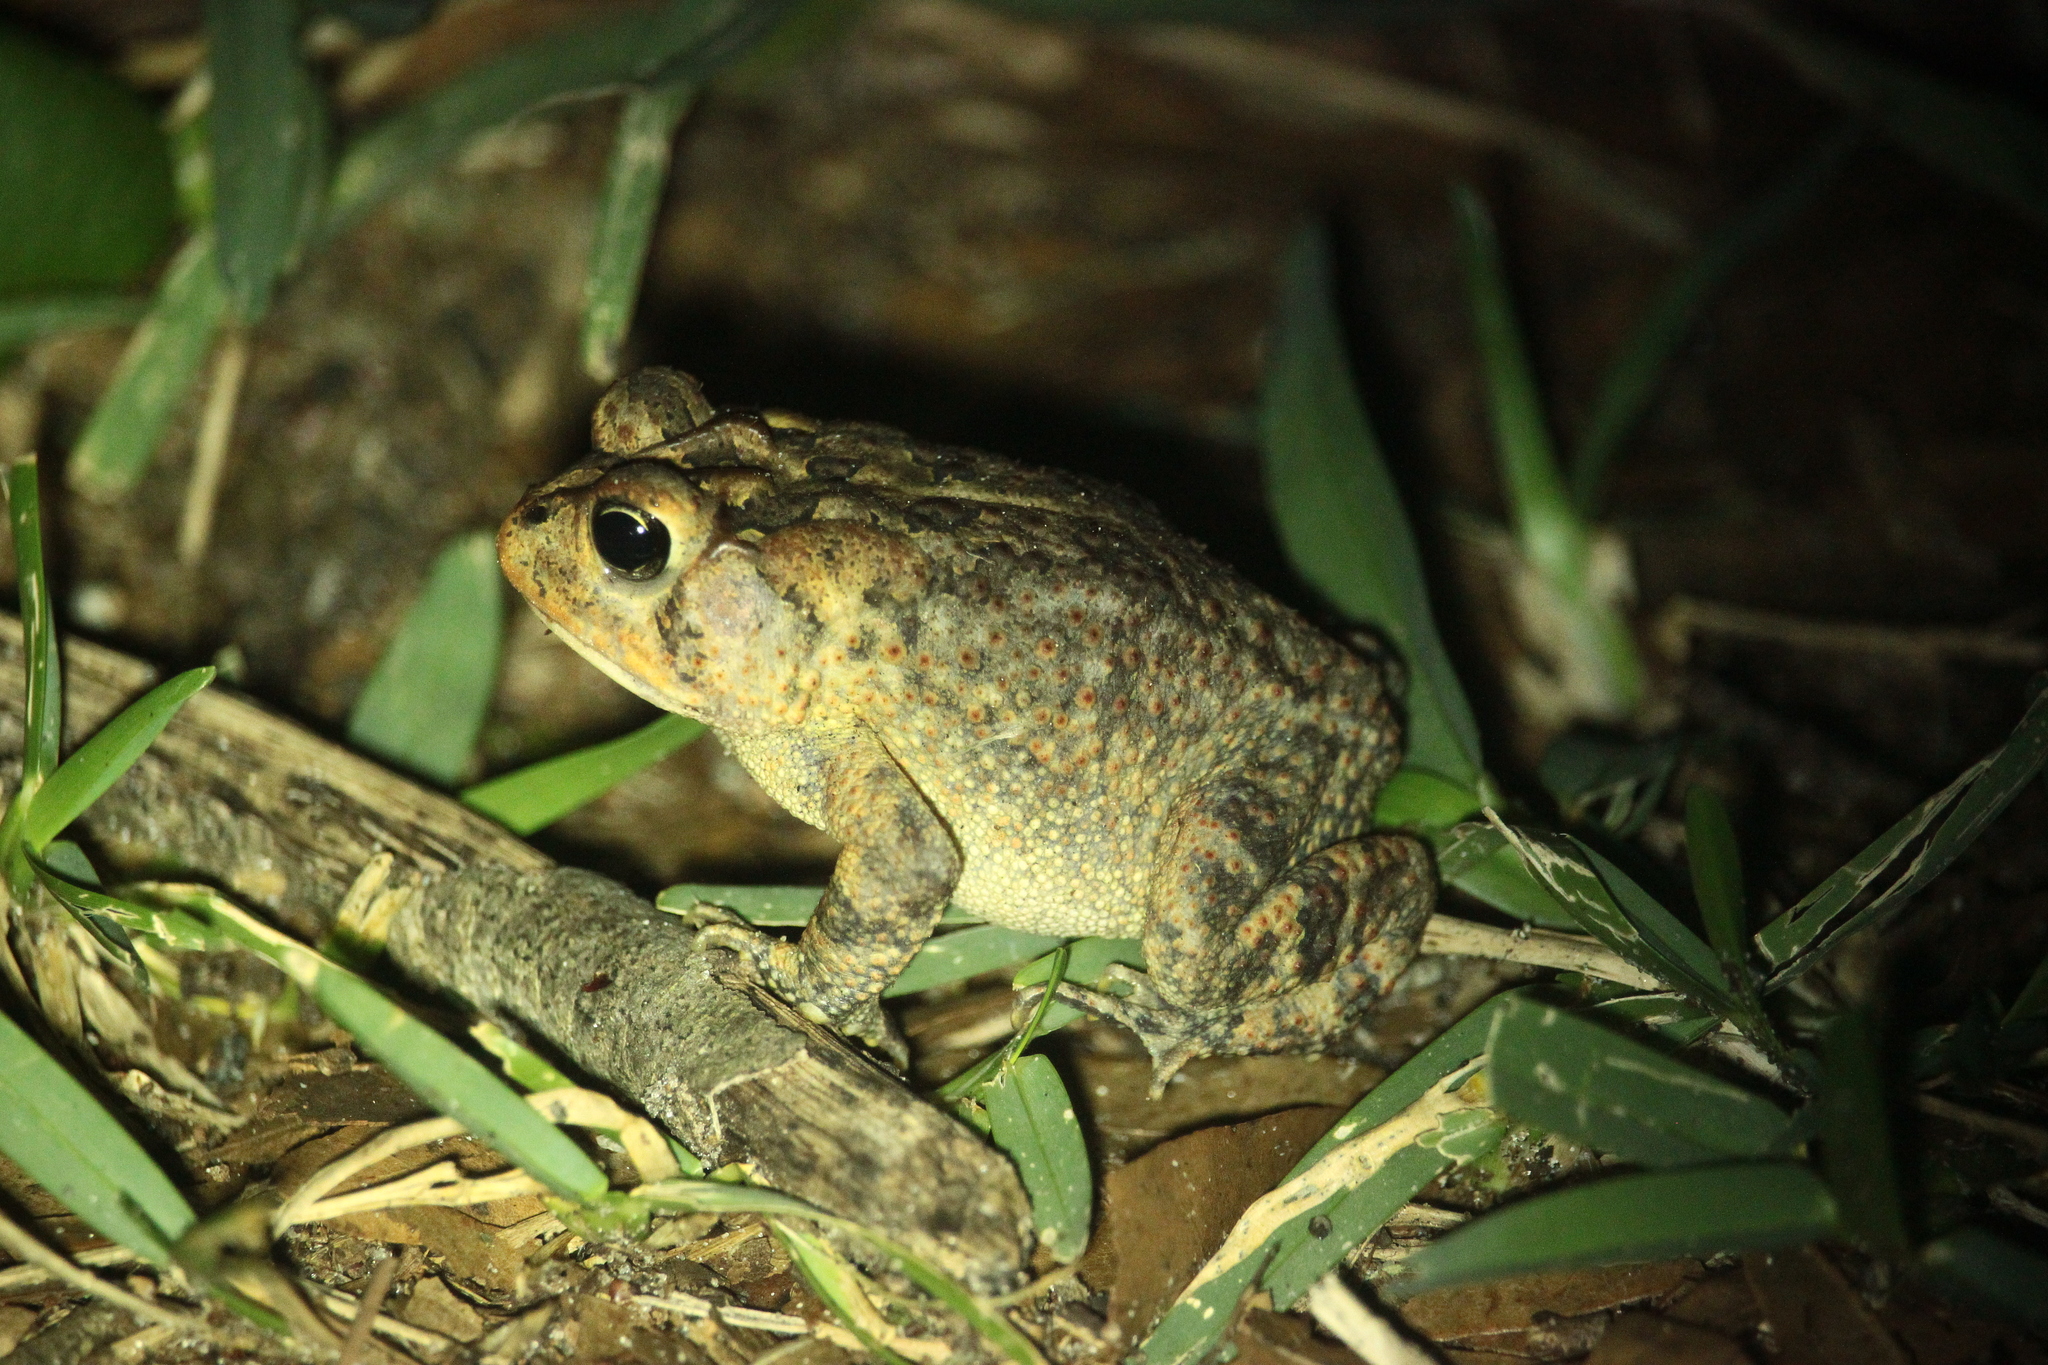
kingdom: Animalia
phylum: Chordata
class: Amphibia
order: Anura
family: Bufonidae
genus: Anaxyrus
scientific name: Anaxyrus terrestris
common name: Southern toad
